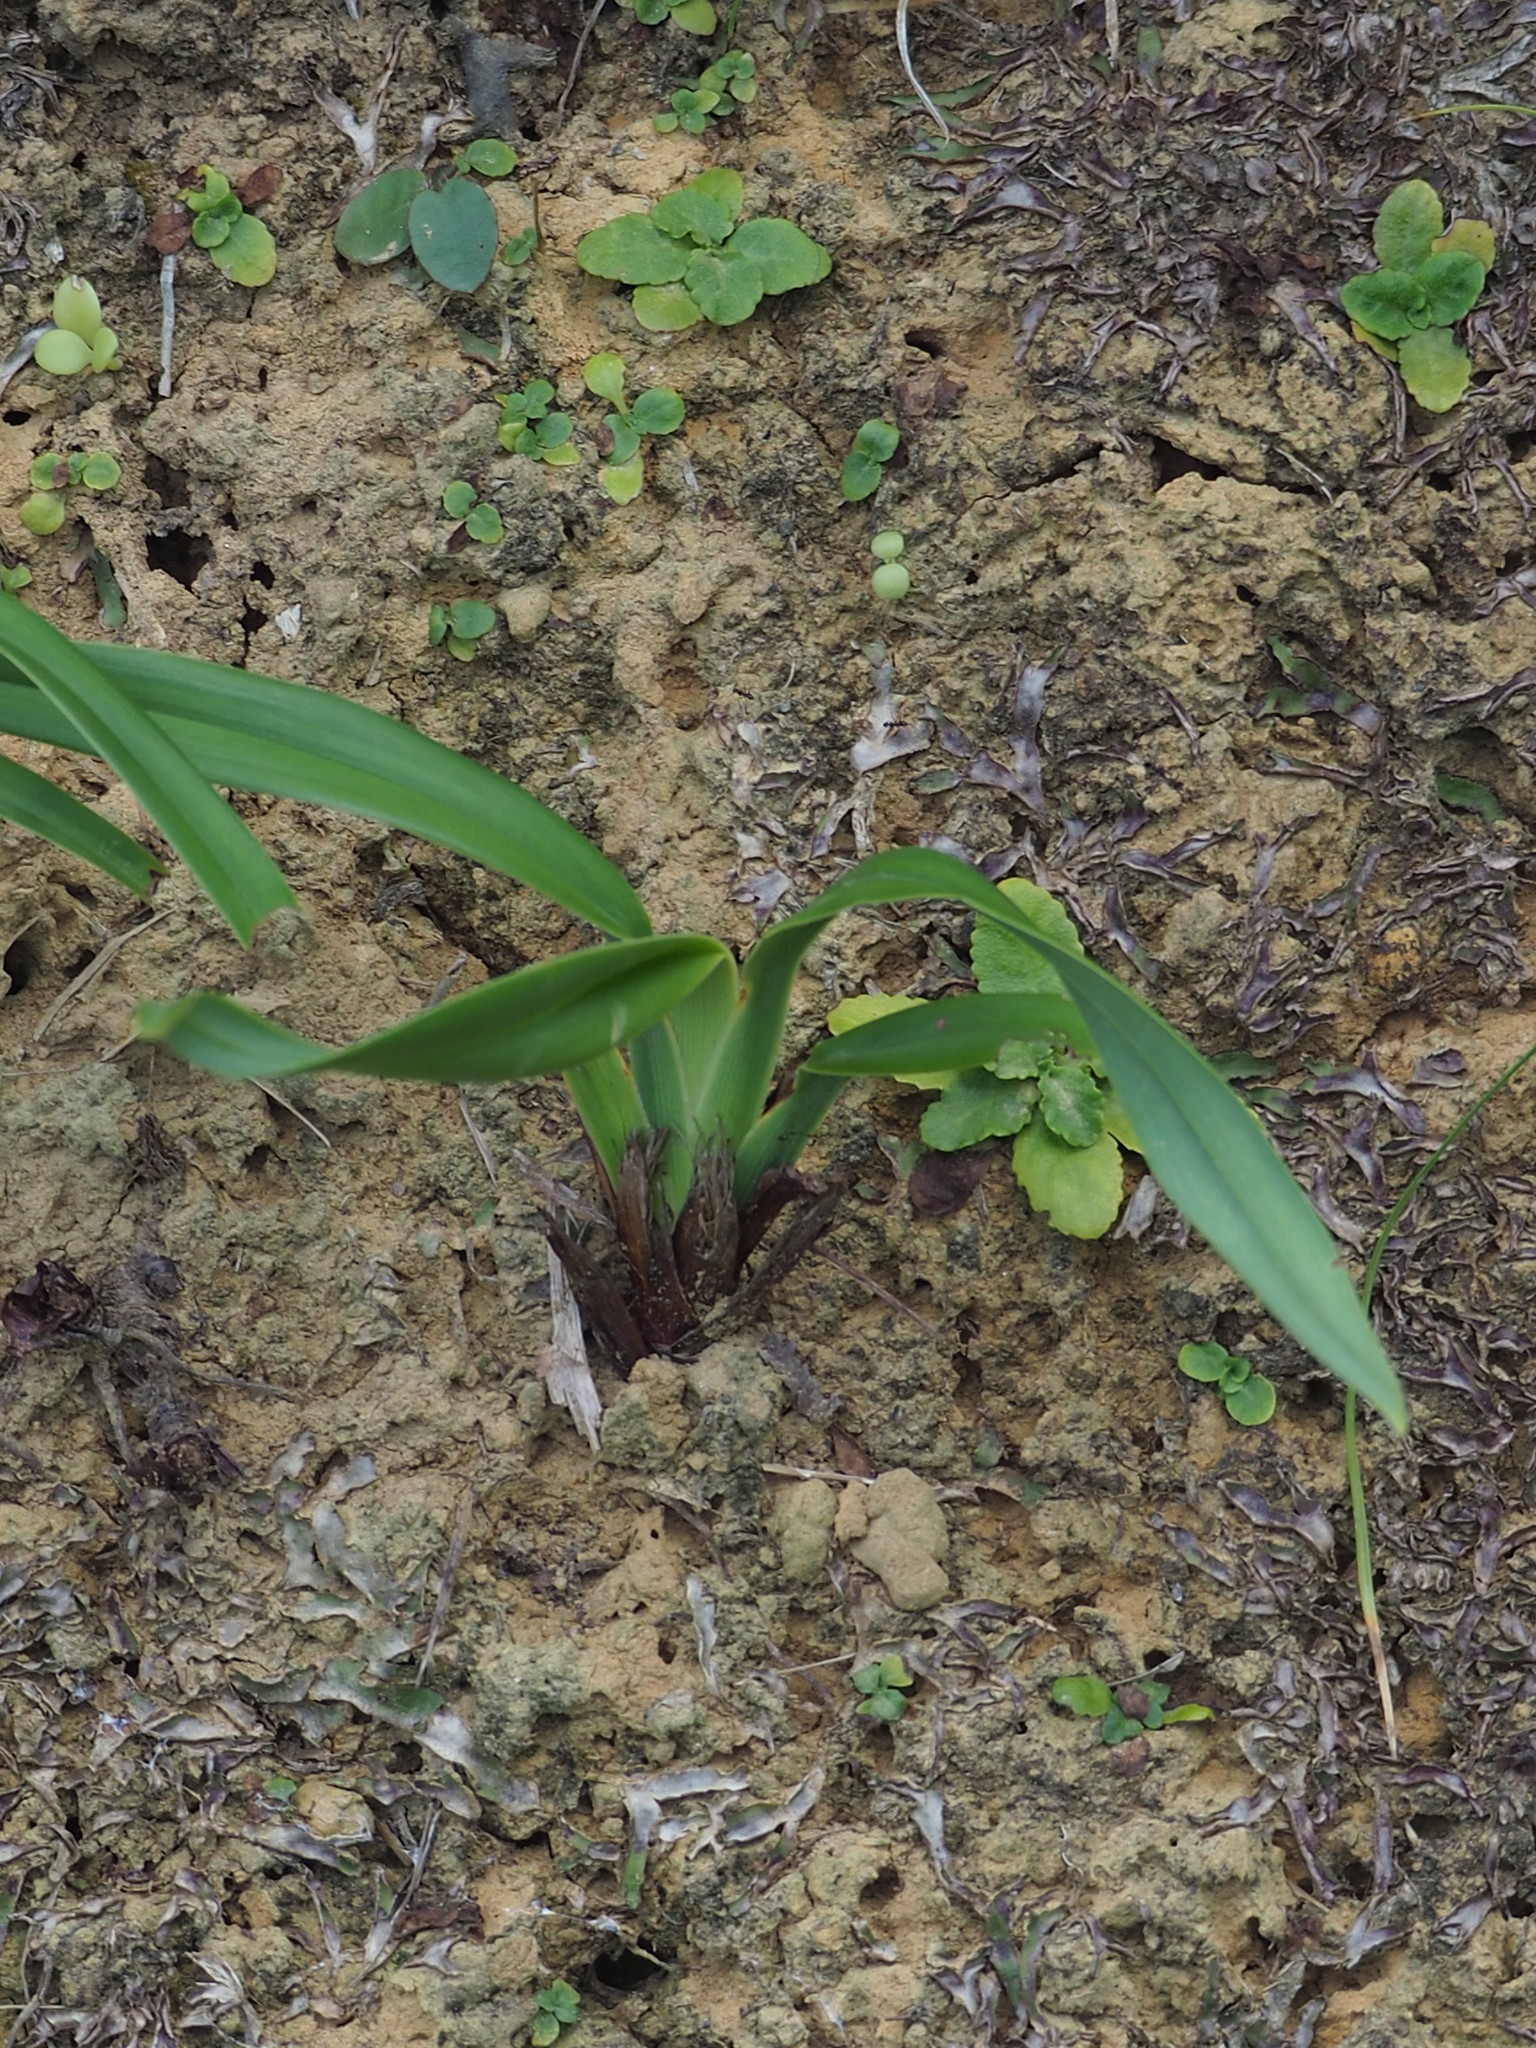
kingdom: Plantae
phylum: Tracheophyta
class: Liliopsida
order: Asparagales
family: Asphodelaceae
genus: Dianella
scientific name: Dianella ensifolia
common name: New zealand lilyplant
